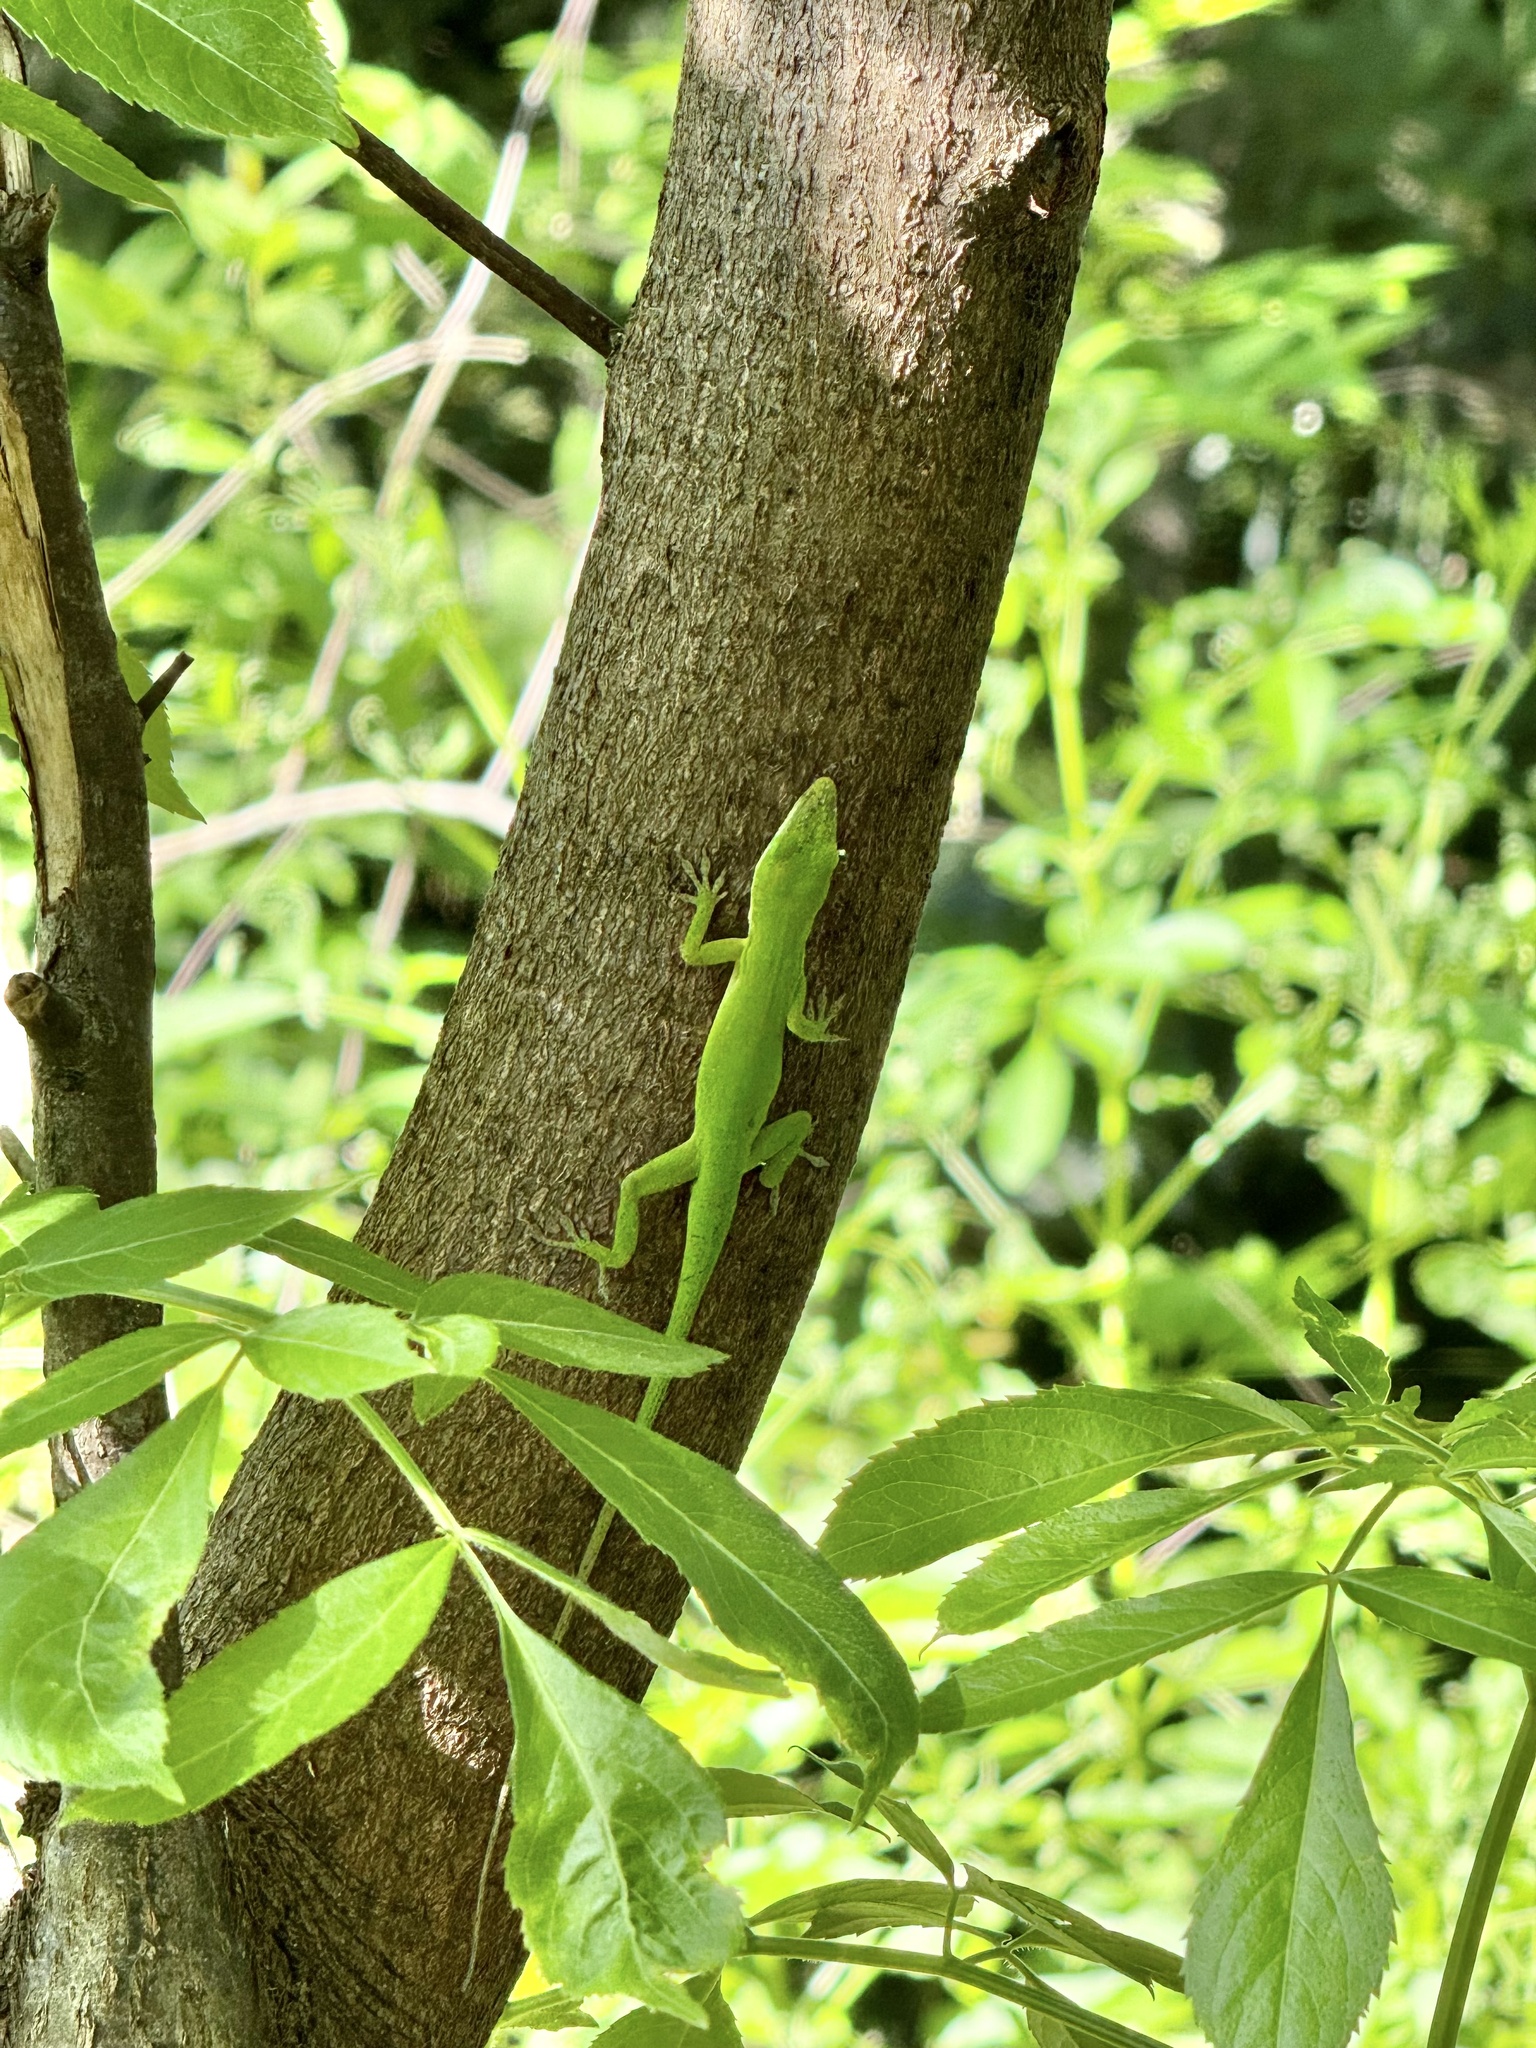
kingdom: Animalia
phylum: Chordata
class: Squamata
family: Dactyloidae
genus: Anolis
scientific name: Anolis carolinensis
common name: Green anole
